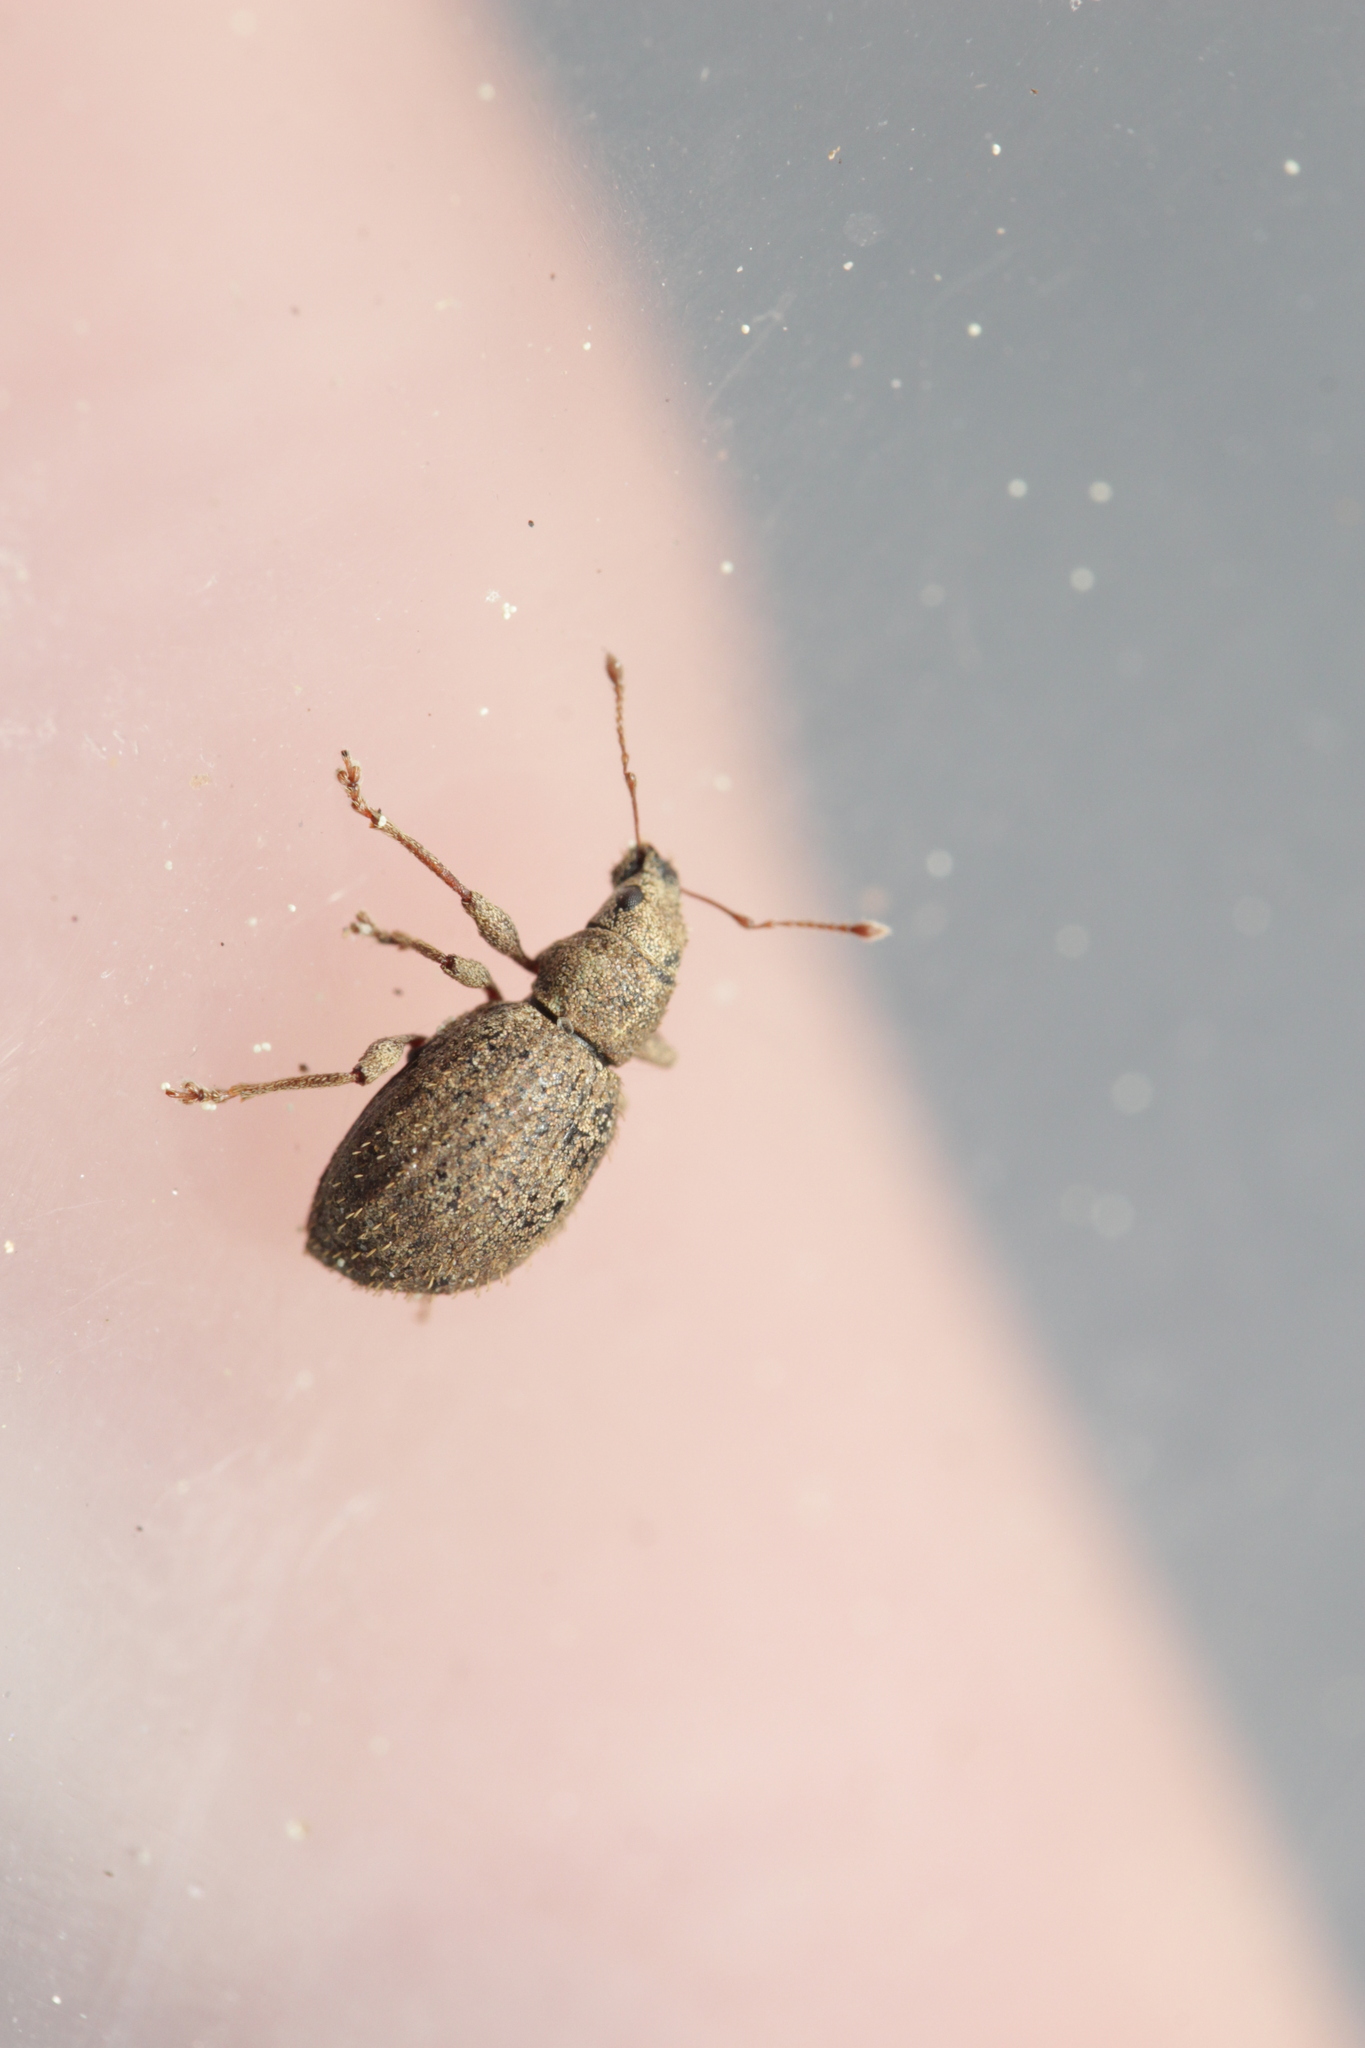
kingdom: Animalia
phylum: Arthropoda
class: Insecta
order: Coleoptera
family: Curculionidae
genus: Sciaphilus
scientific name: Sciaphilus asperatus
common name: Weevil
